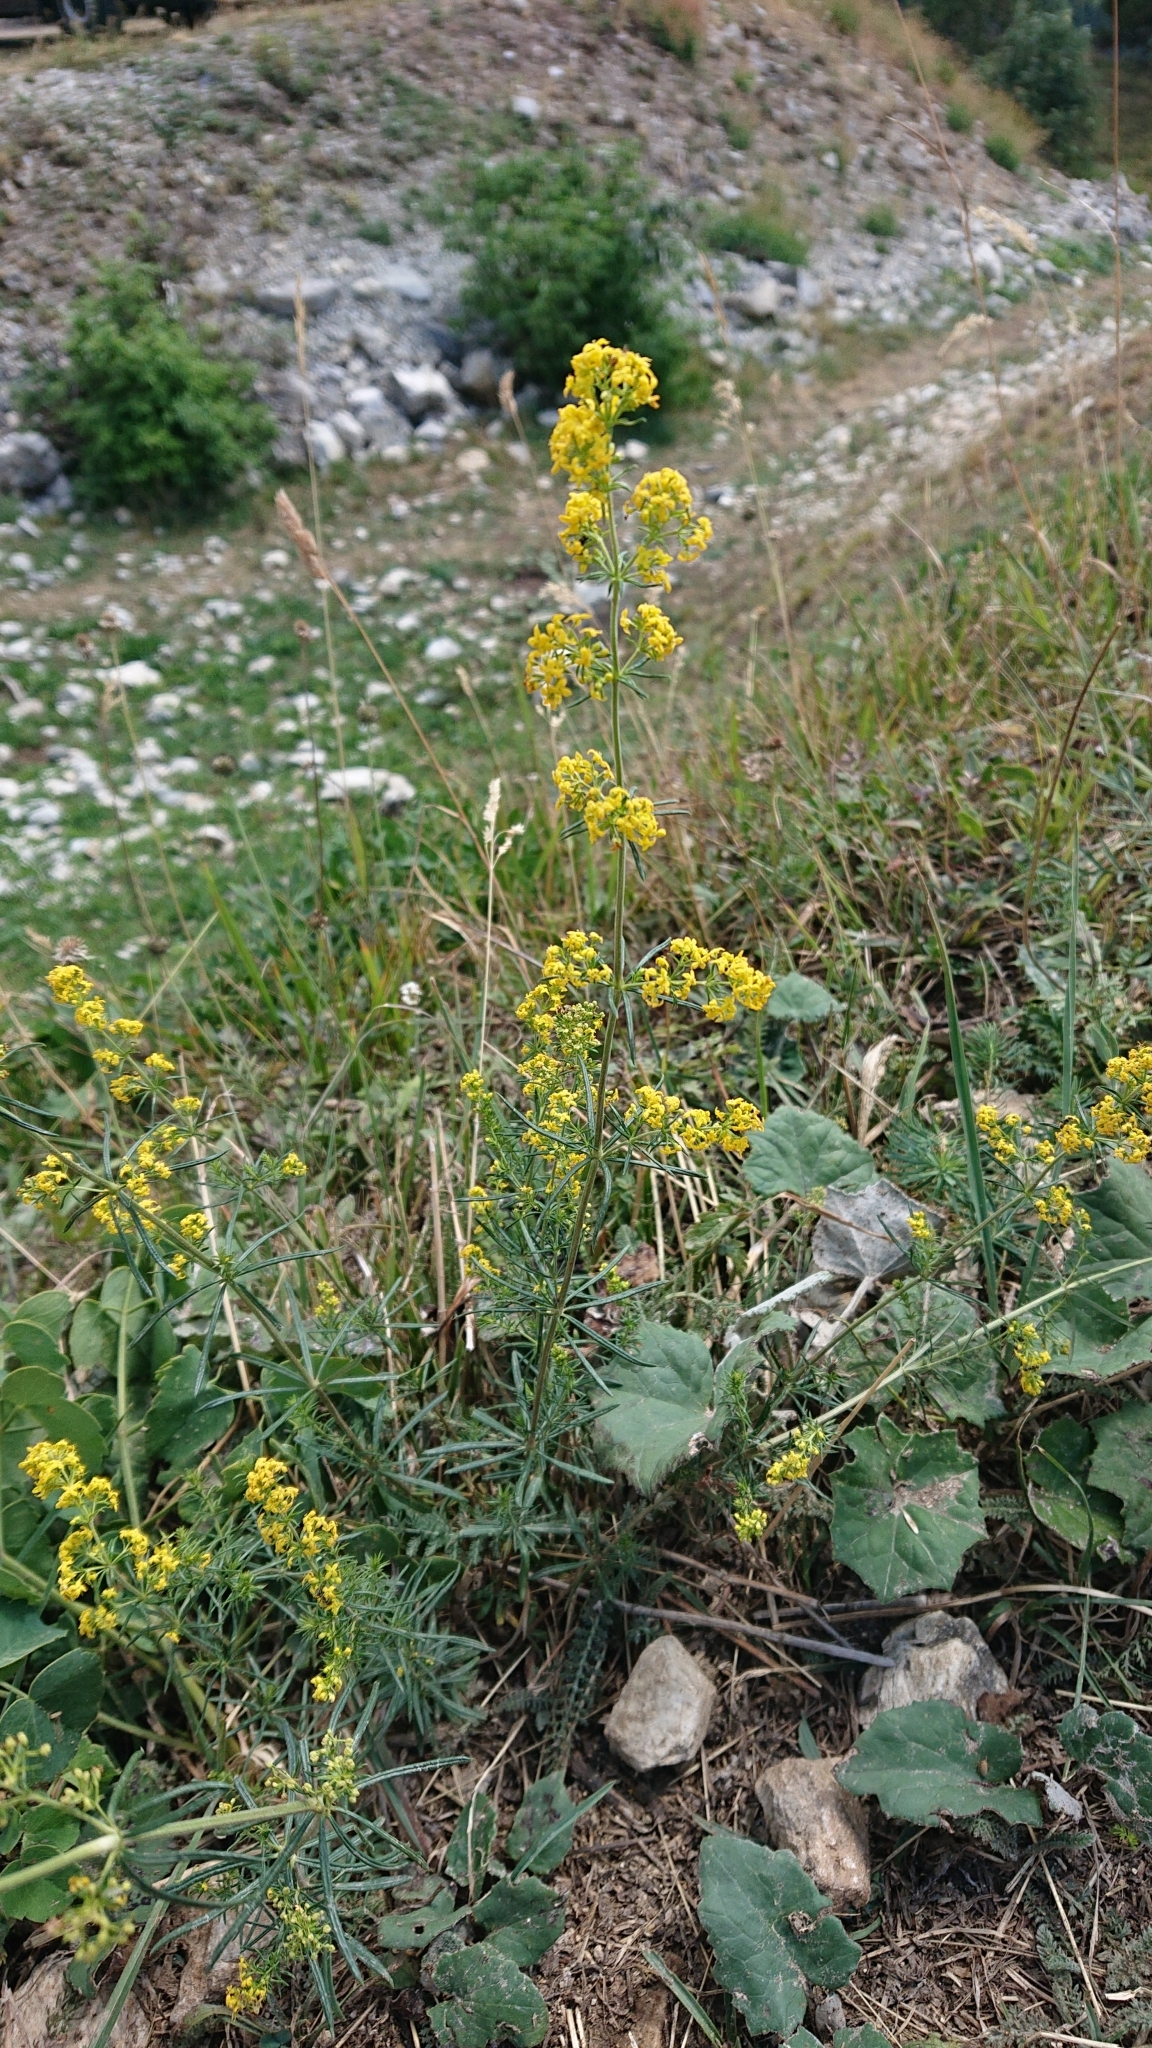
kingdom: Plantae
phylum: Tracheophyta
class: Magnoliopsida
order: Gentianales
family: Rubiaceae
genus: Galium
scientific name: Galium verum
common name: Lady's bedstraw
